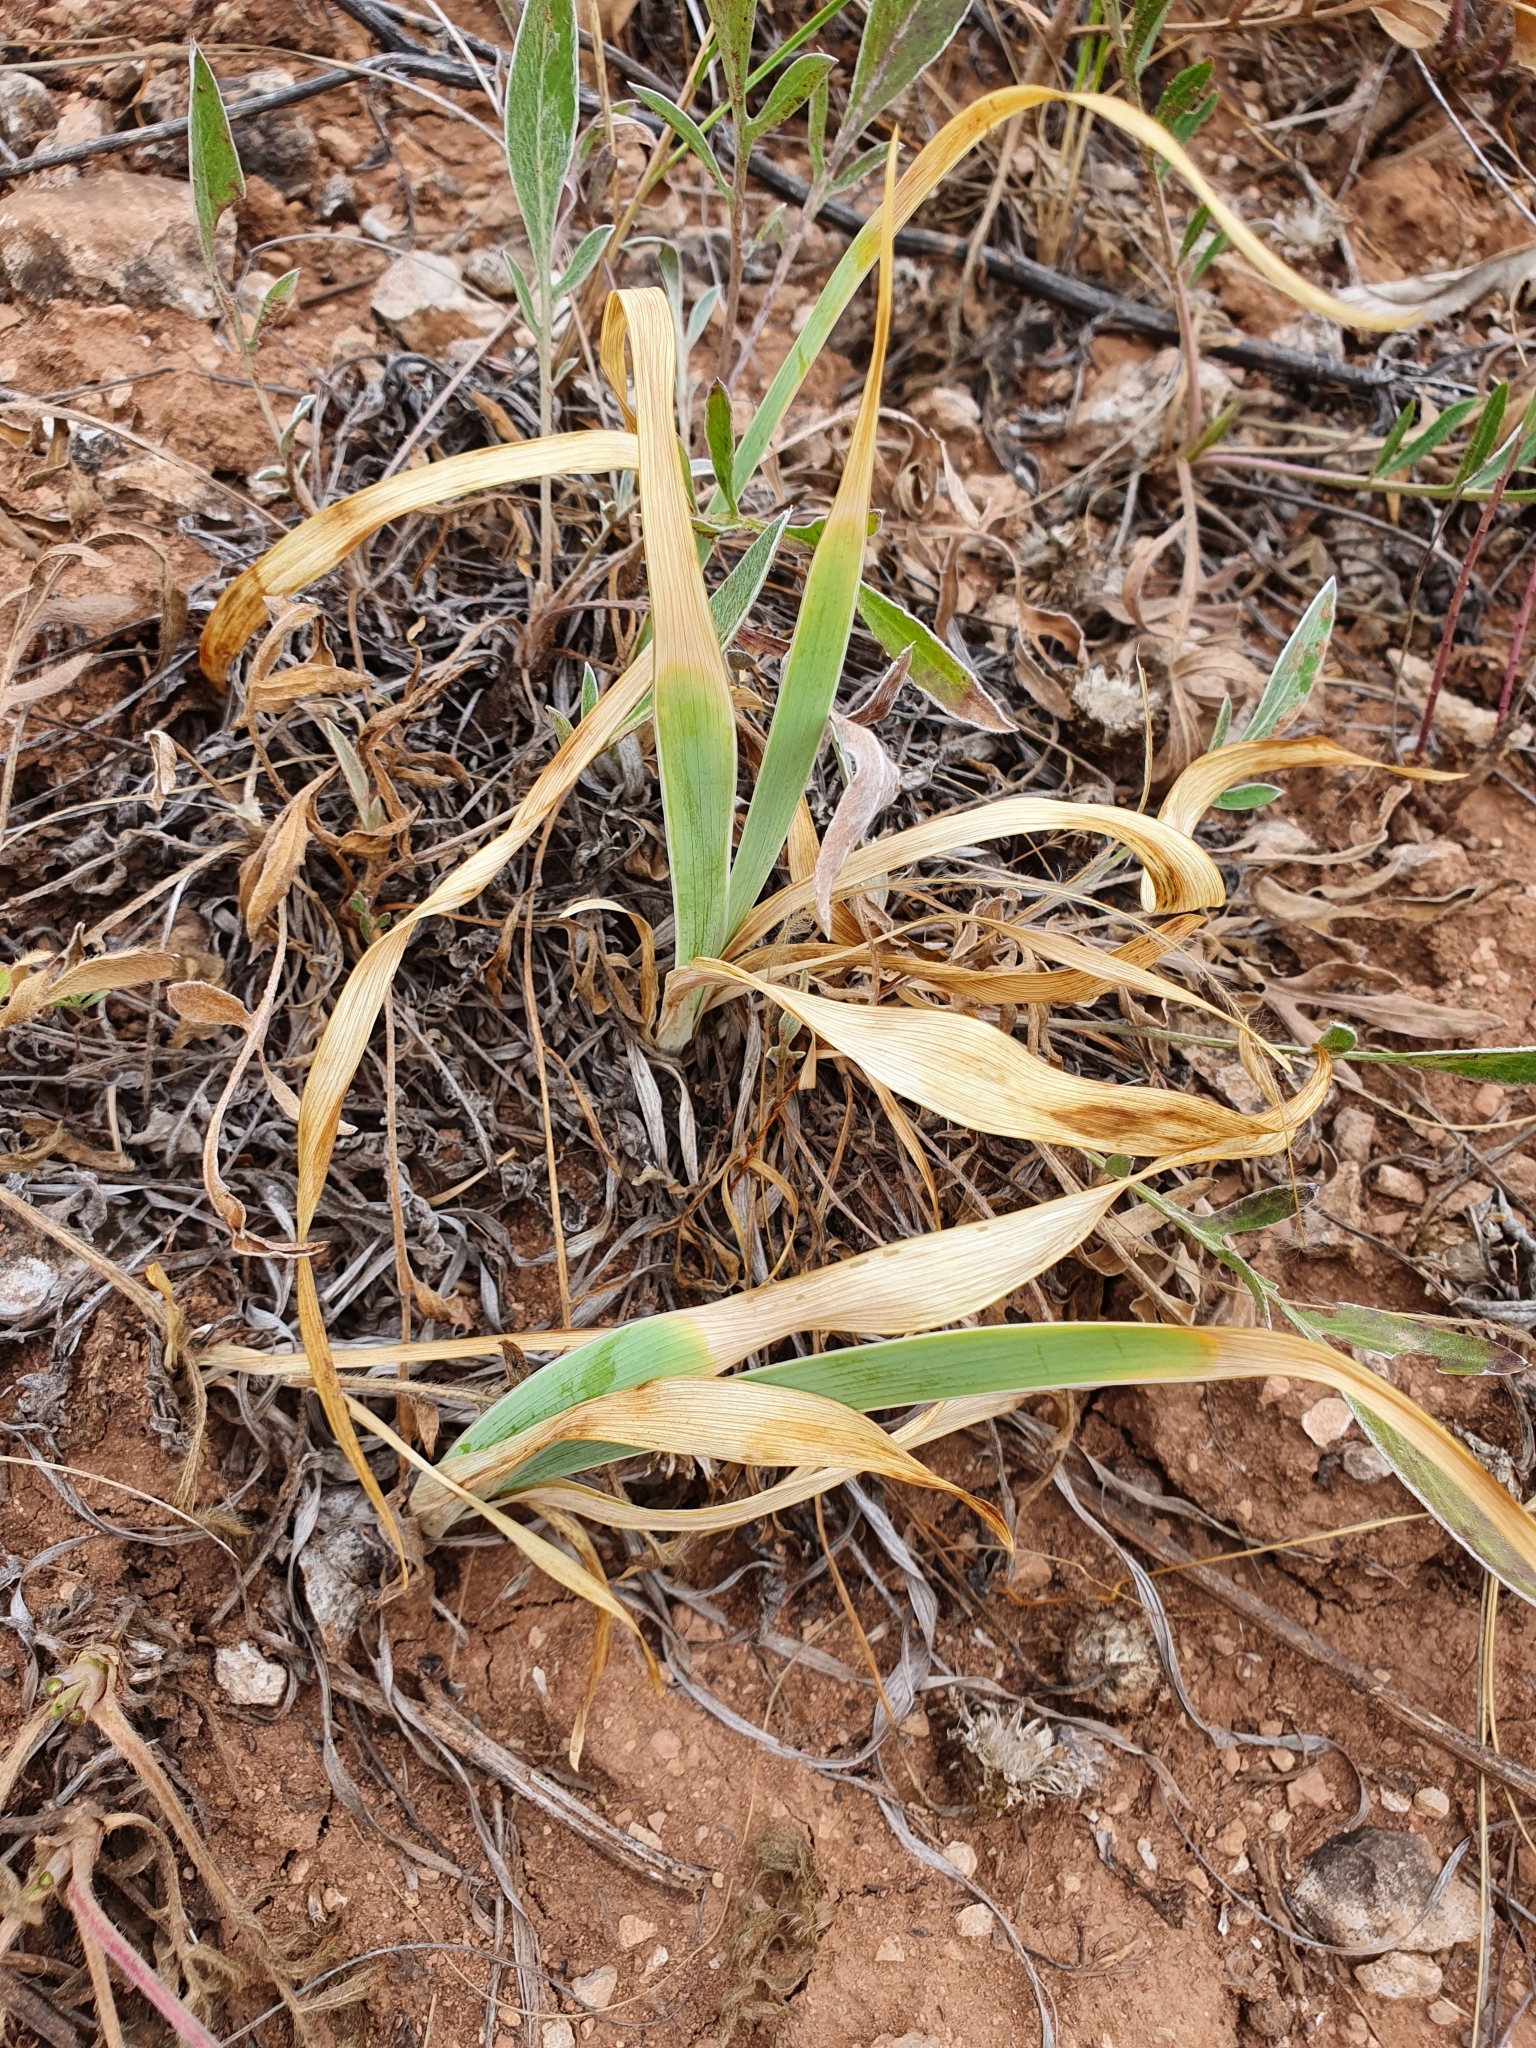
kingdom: Plantae
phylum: Tracheophyta
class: Liliopsida
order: Asparagales
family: Iridaceae
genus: Iris
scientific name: Iris pumila
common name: Dwarf iris
